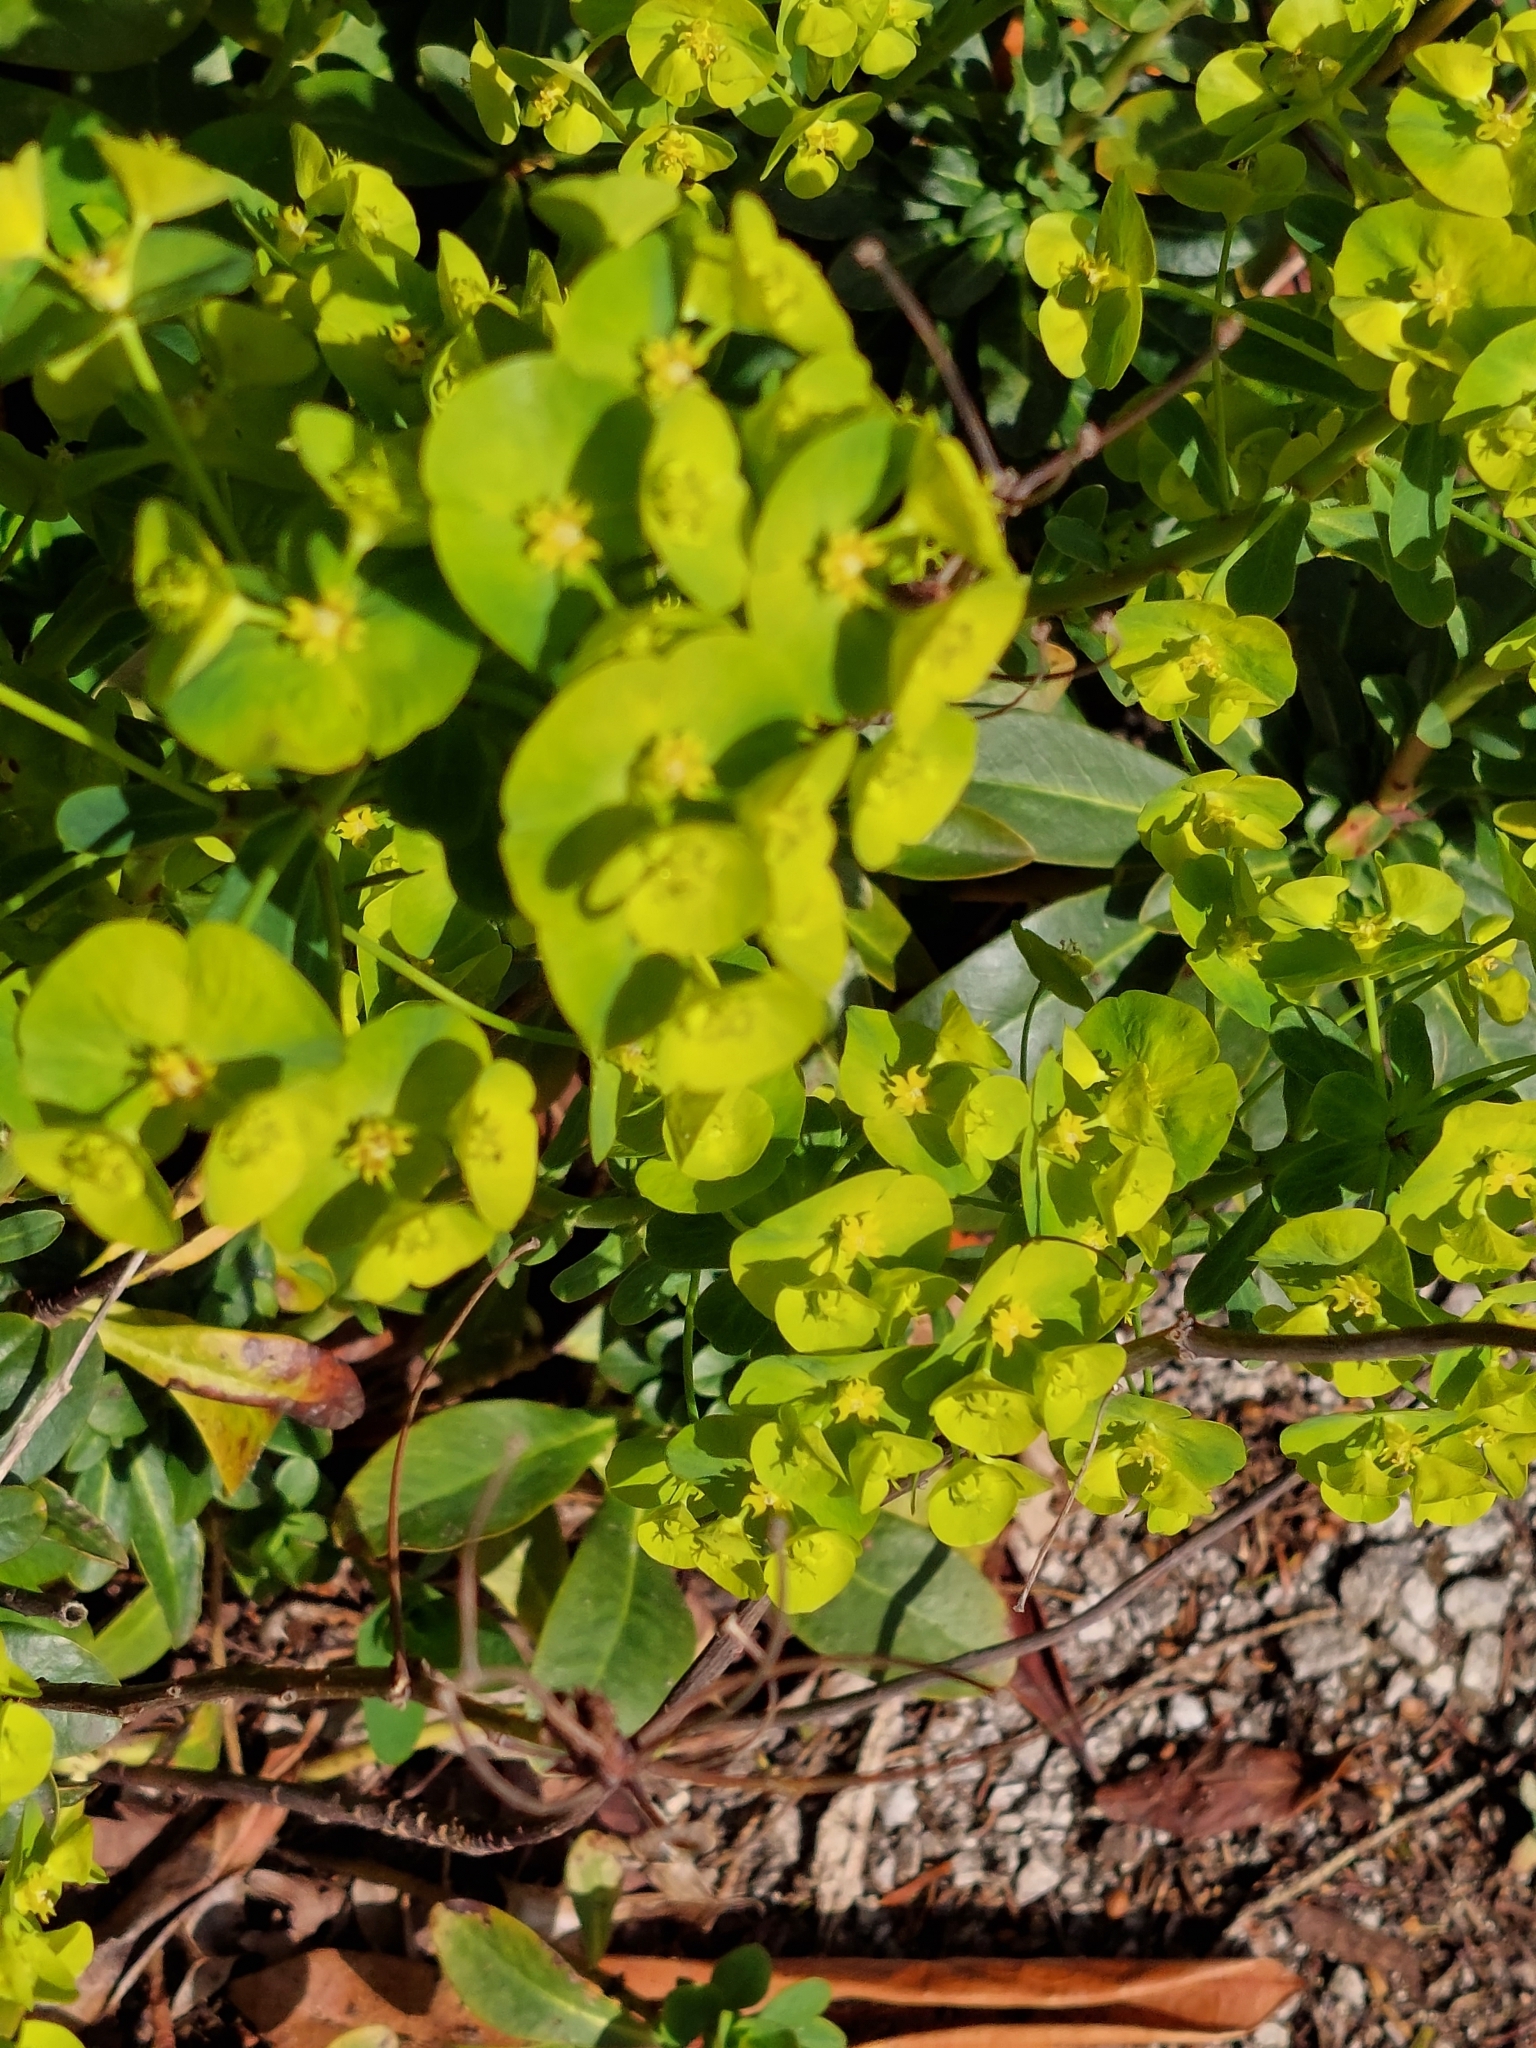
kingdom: Plantae
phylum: Tracheophyta
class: Magnoliopsida
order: Malpighiales
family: Euphorbiaceae
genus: Euphorbia
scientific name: Euphorbia amygdaloides
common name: Wood spurge
